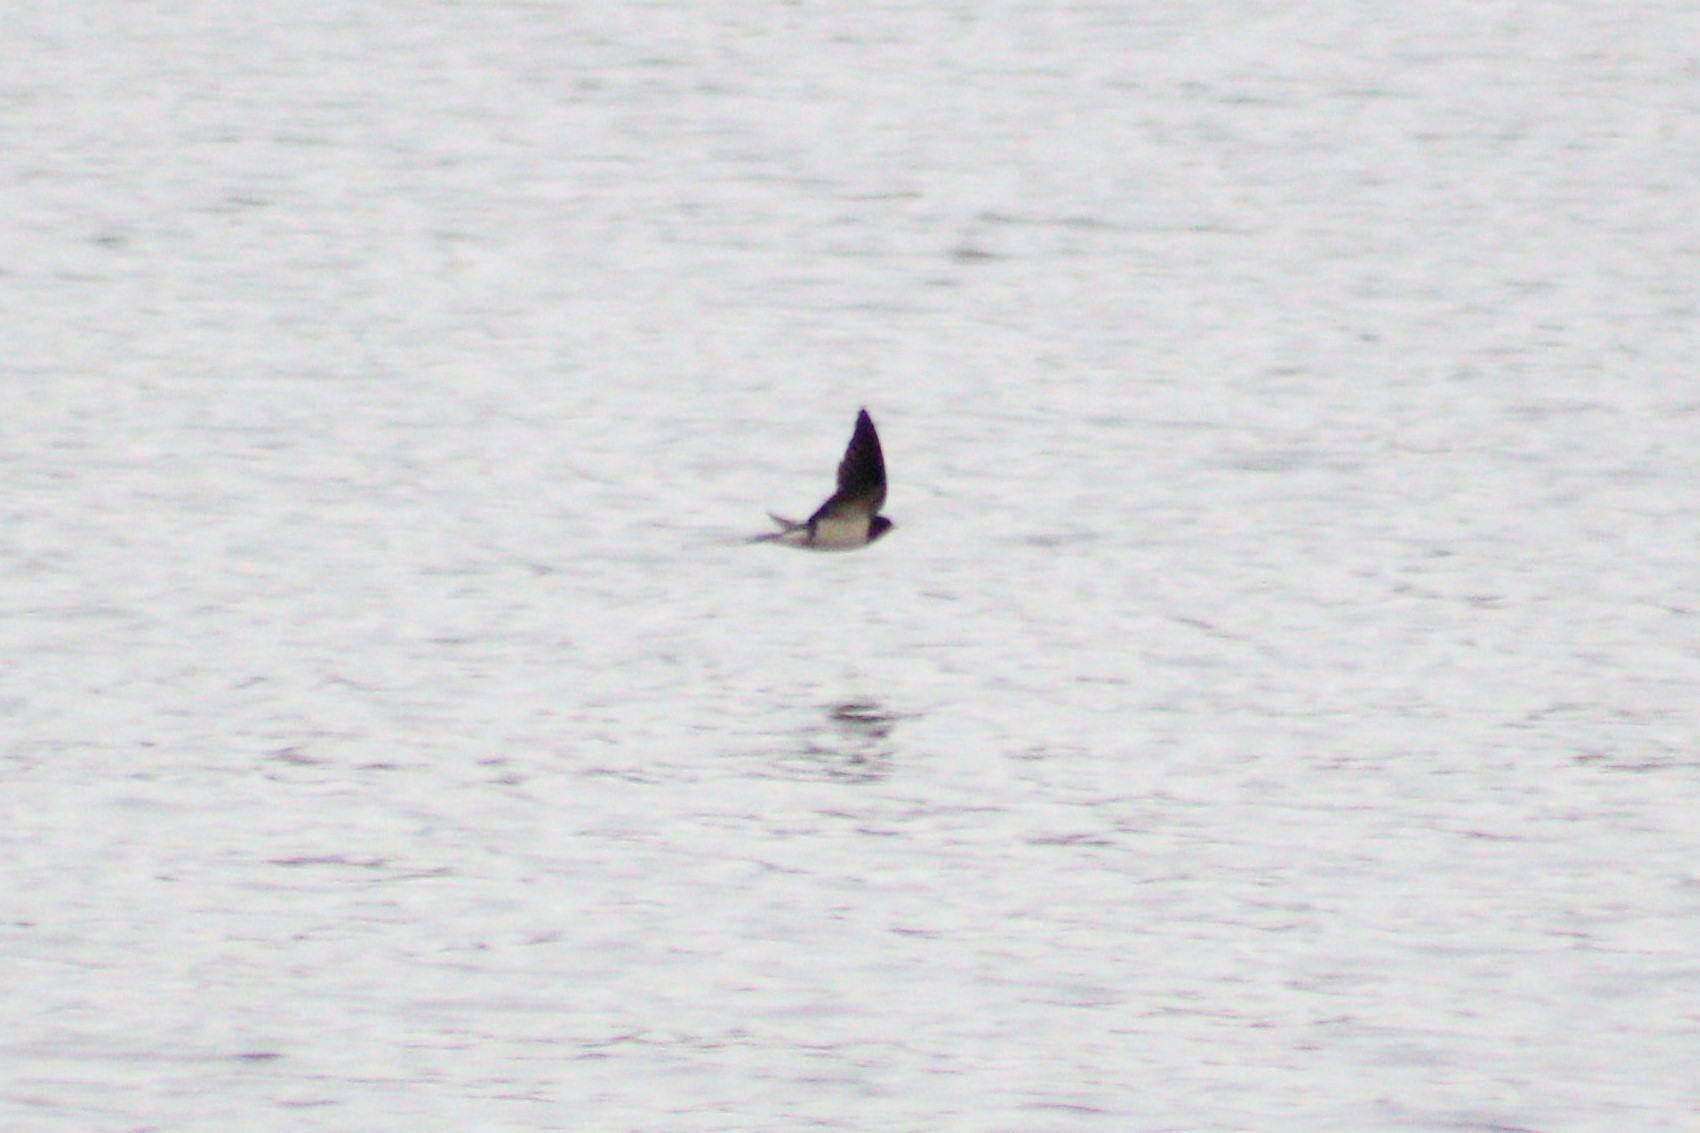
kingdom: Animalia
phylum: Chordata
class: Aves
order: Passeriformes
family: Hirundinidae
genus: Hirundo
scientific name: Hirundo rustica
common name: Barn swallow
